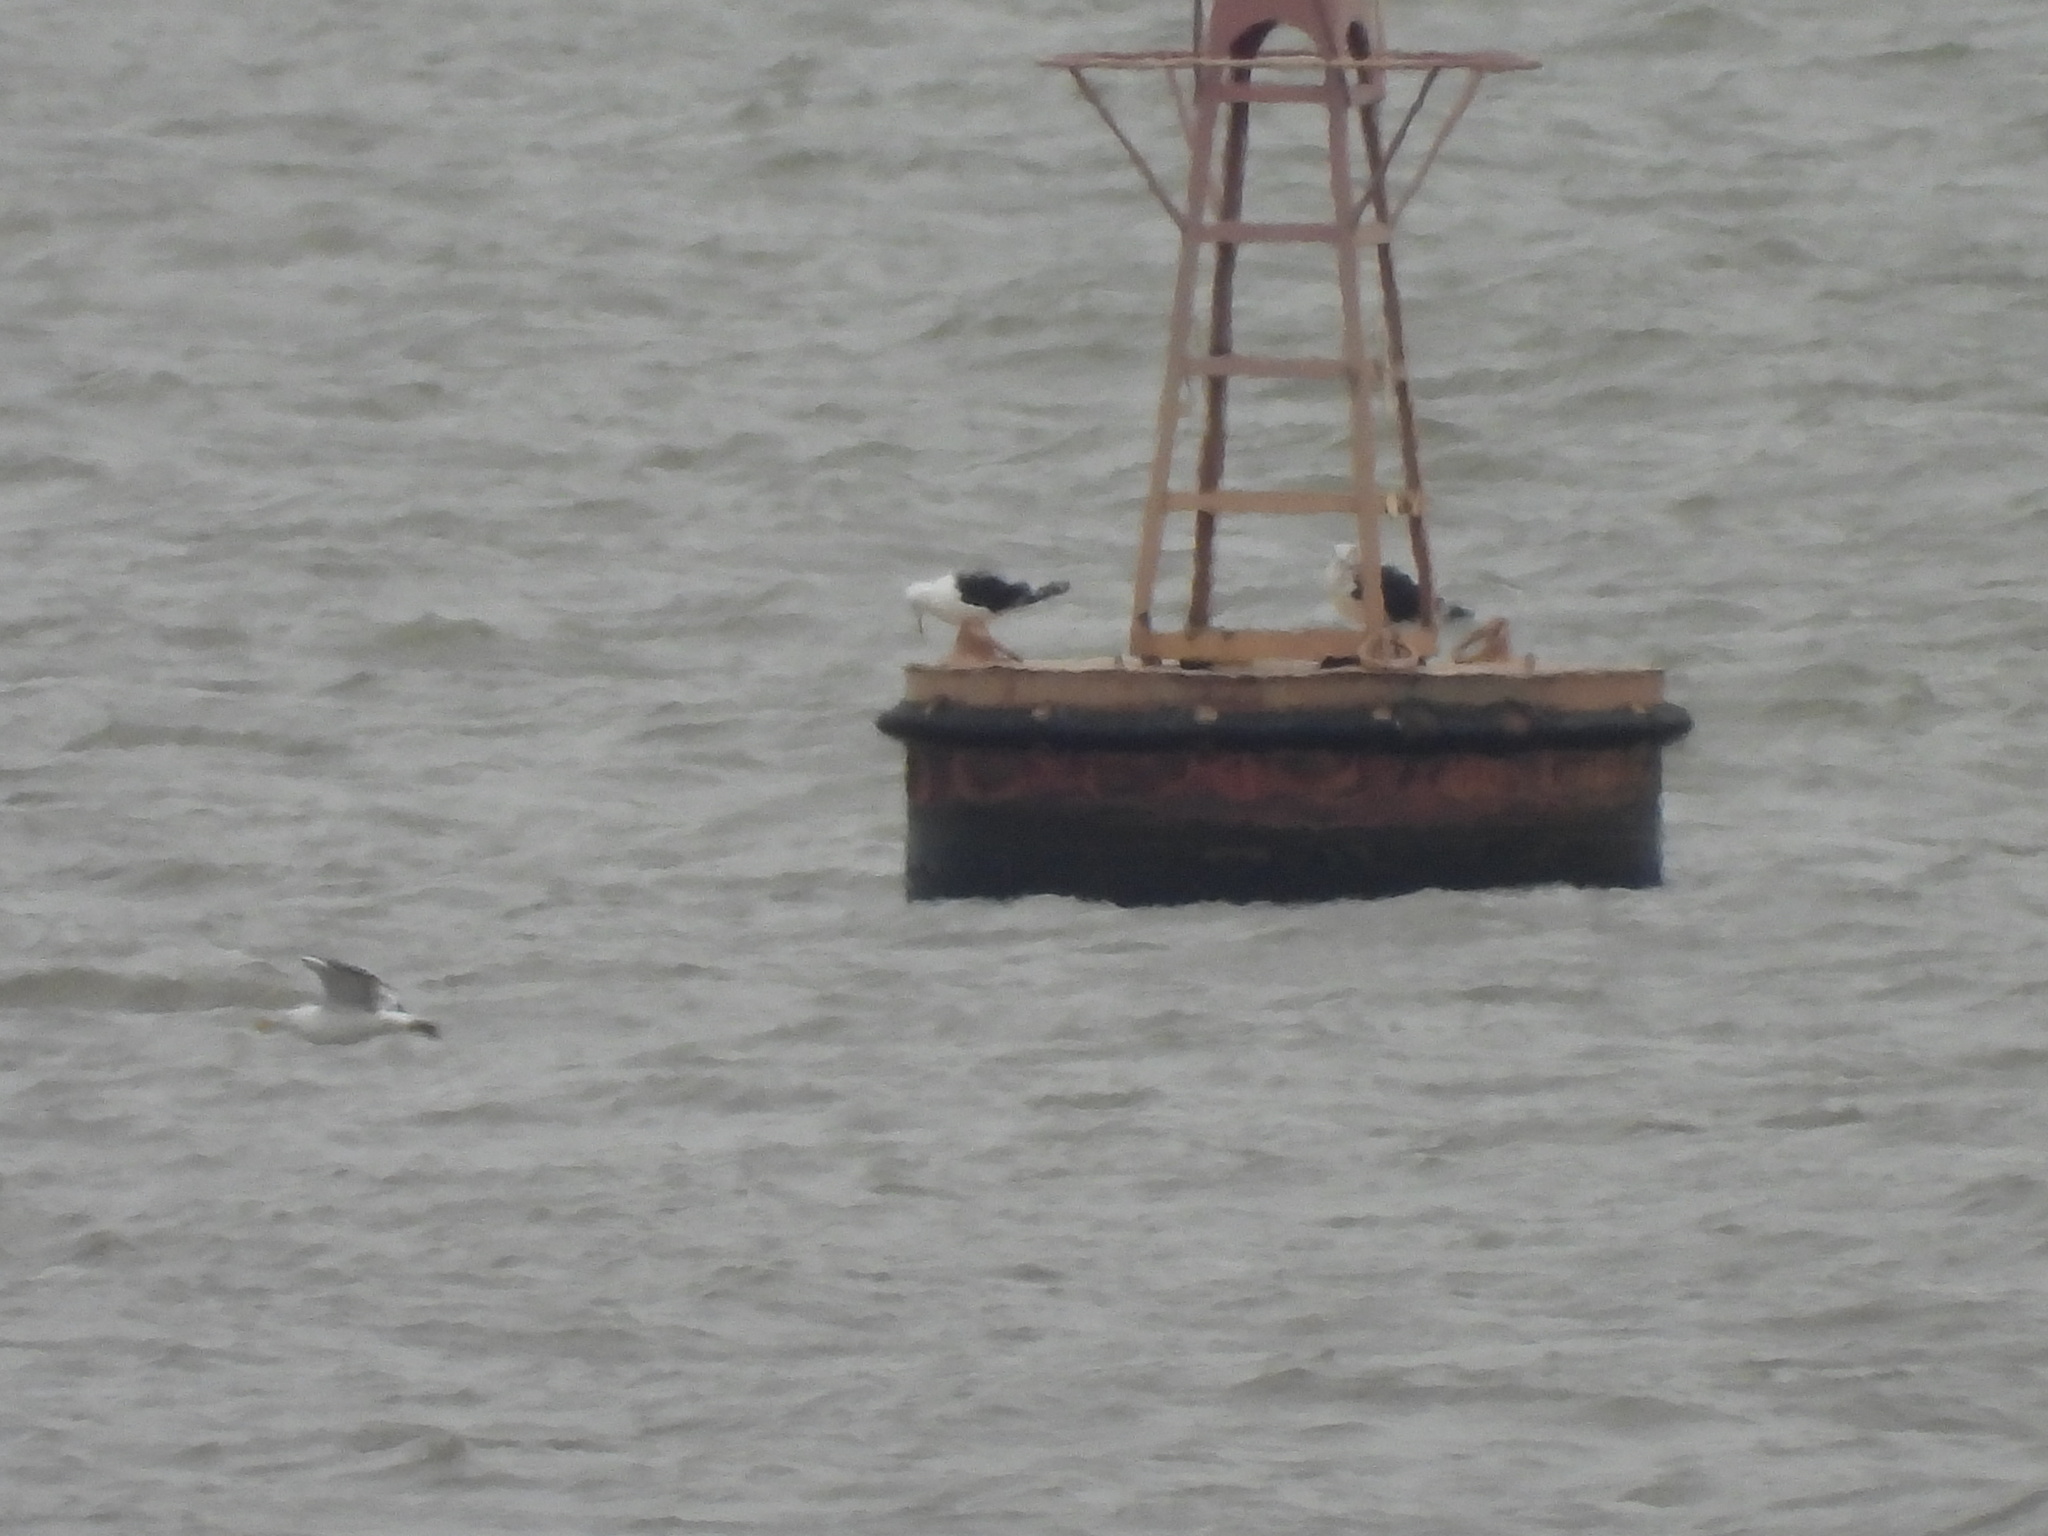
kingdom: Animalia
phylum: Chordata
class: Aves
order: Charadriiformes
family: Laridae
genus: Larus
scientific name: Larus dominicanus
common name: Kelp gull
